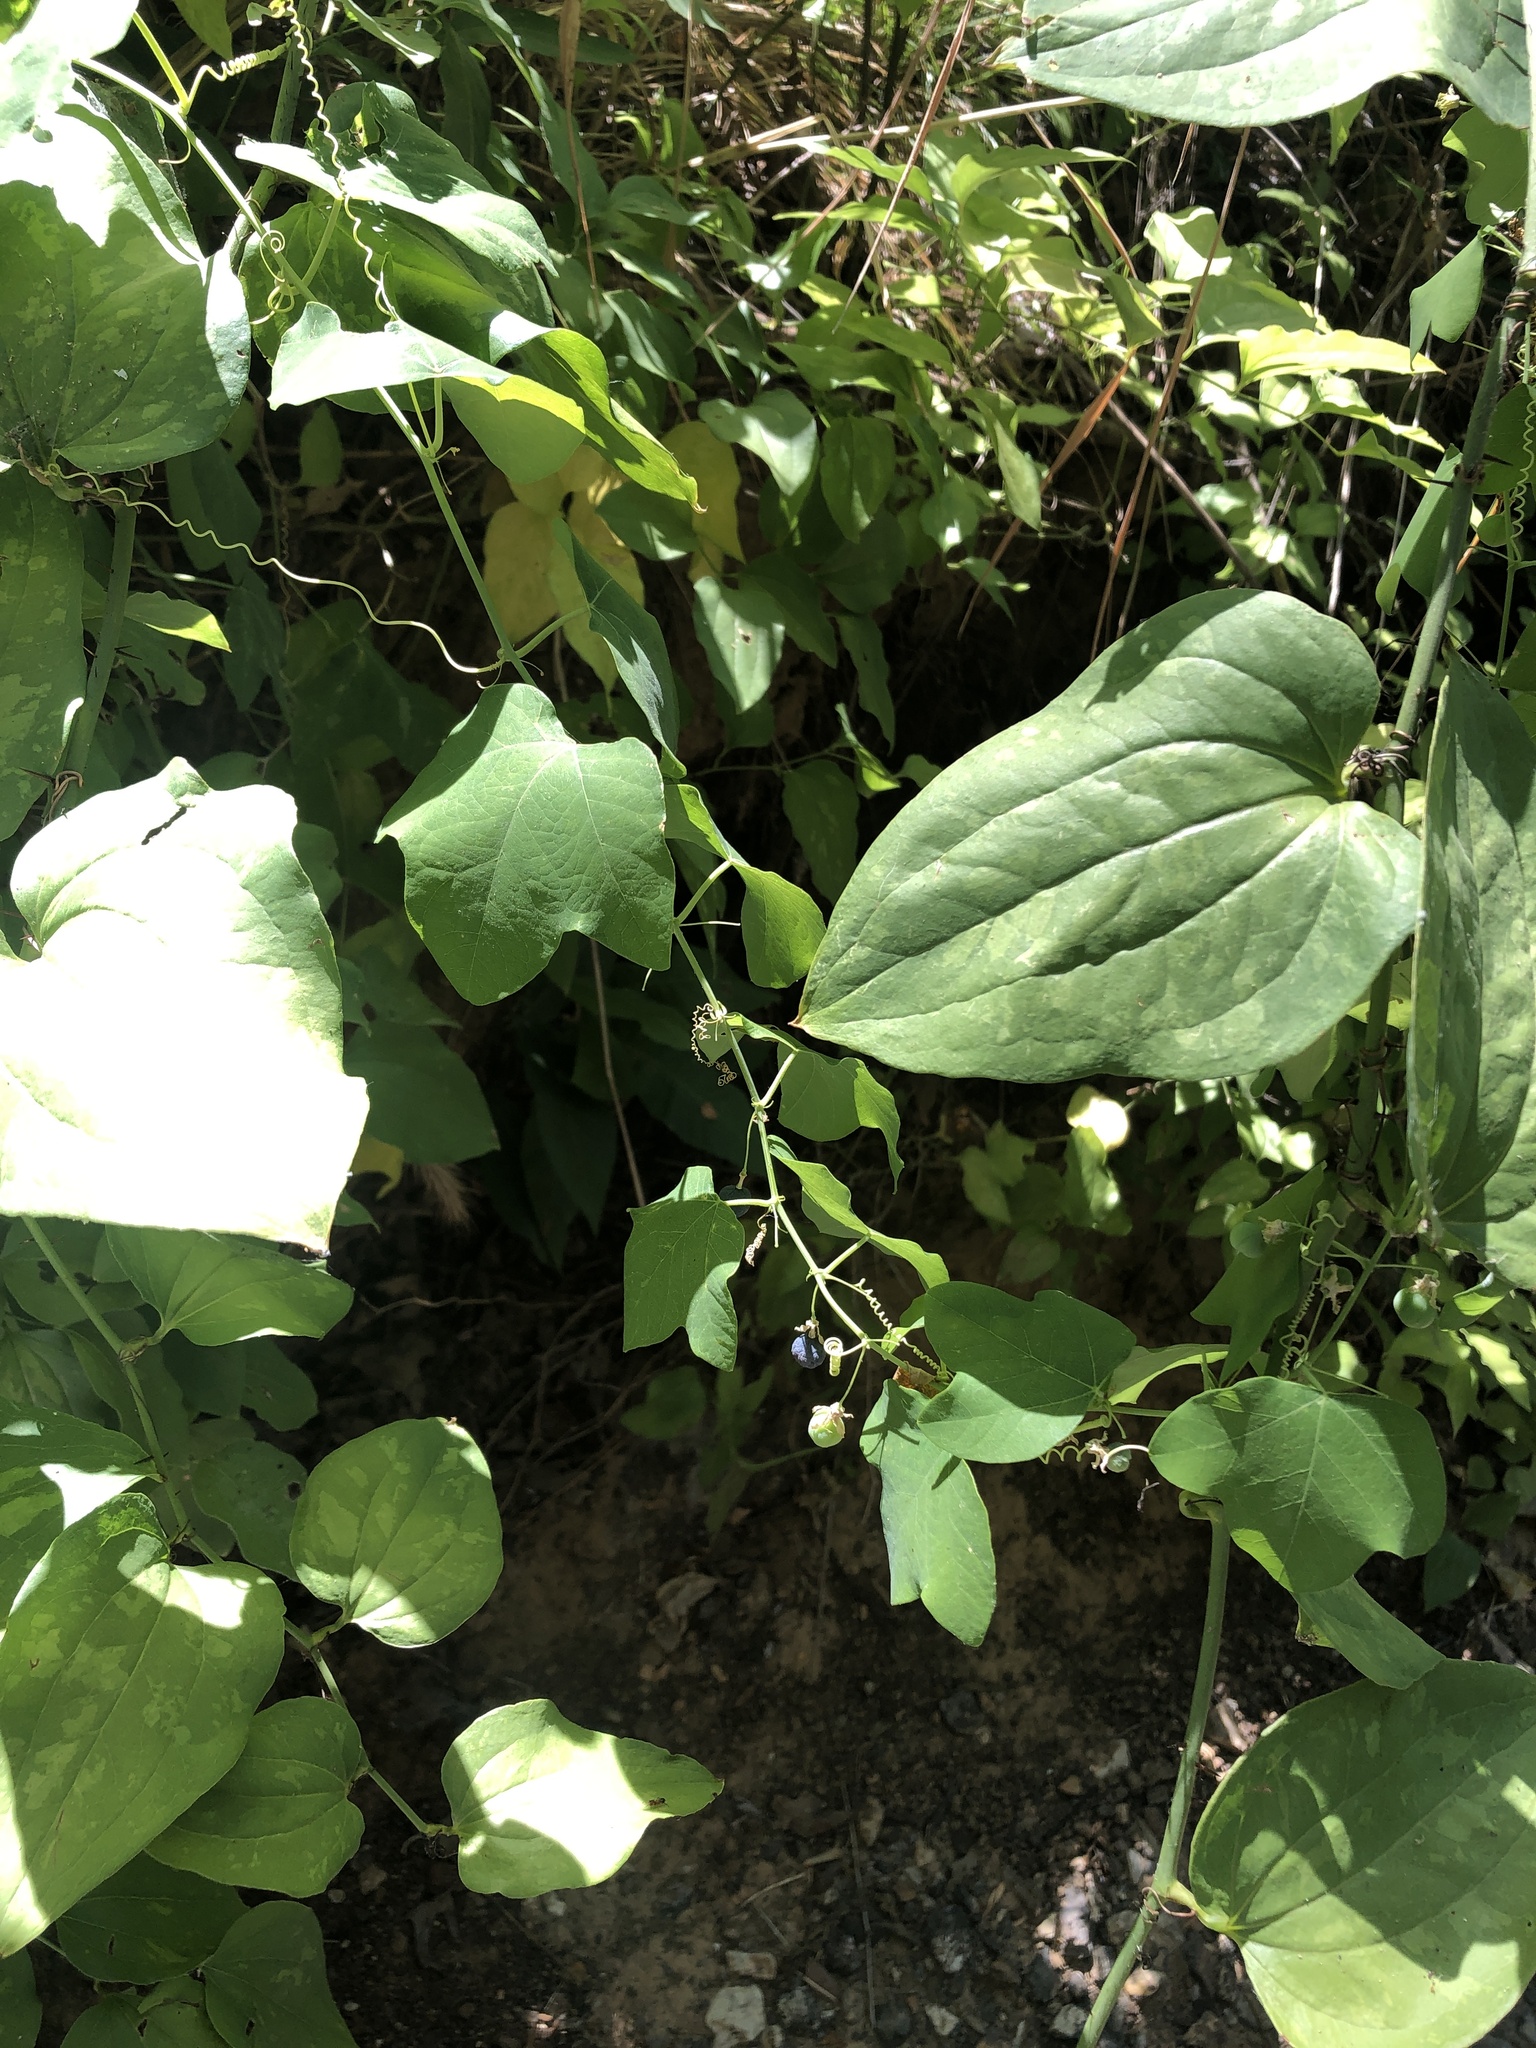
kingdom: Plantae
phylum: Tracheophyta
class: Magnoliopsida
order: Malpighiales
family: Passifloraceae
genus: Passiflora
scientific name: Passiflora lutea
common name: Yellow passionflower
